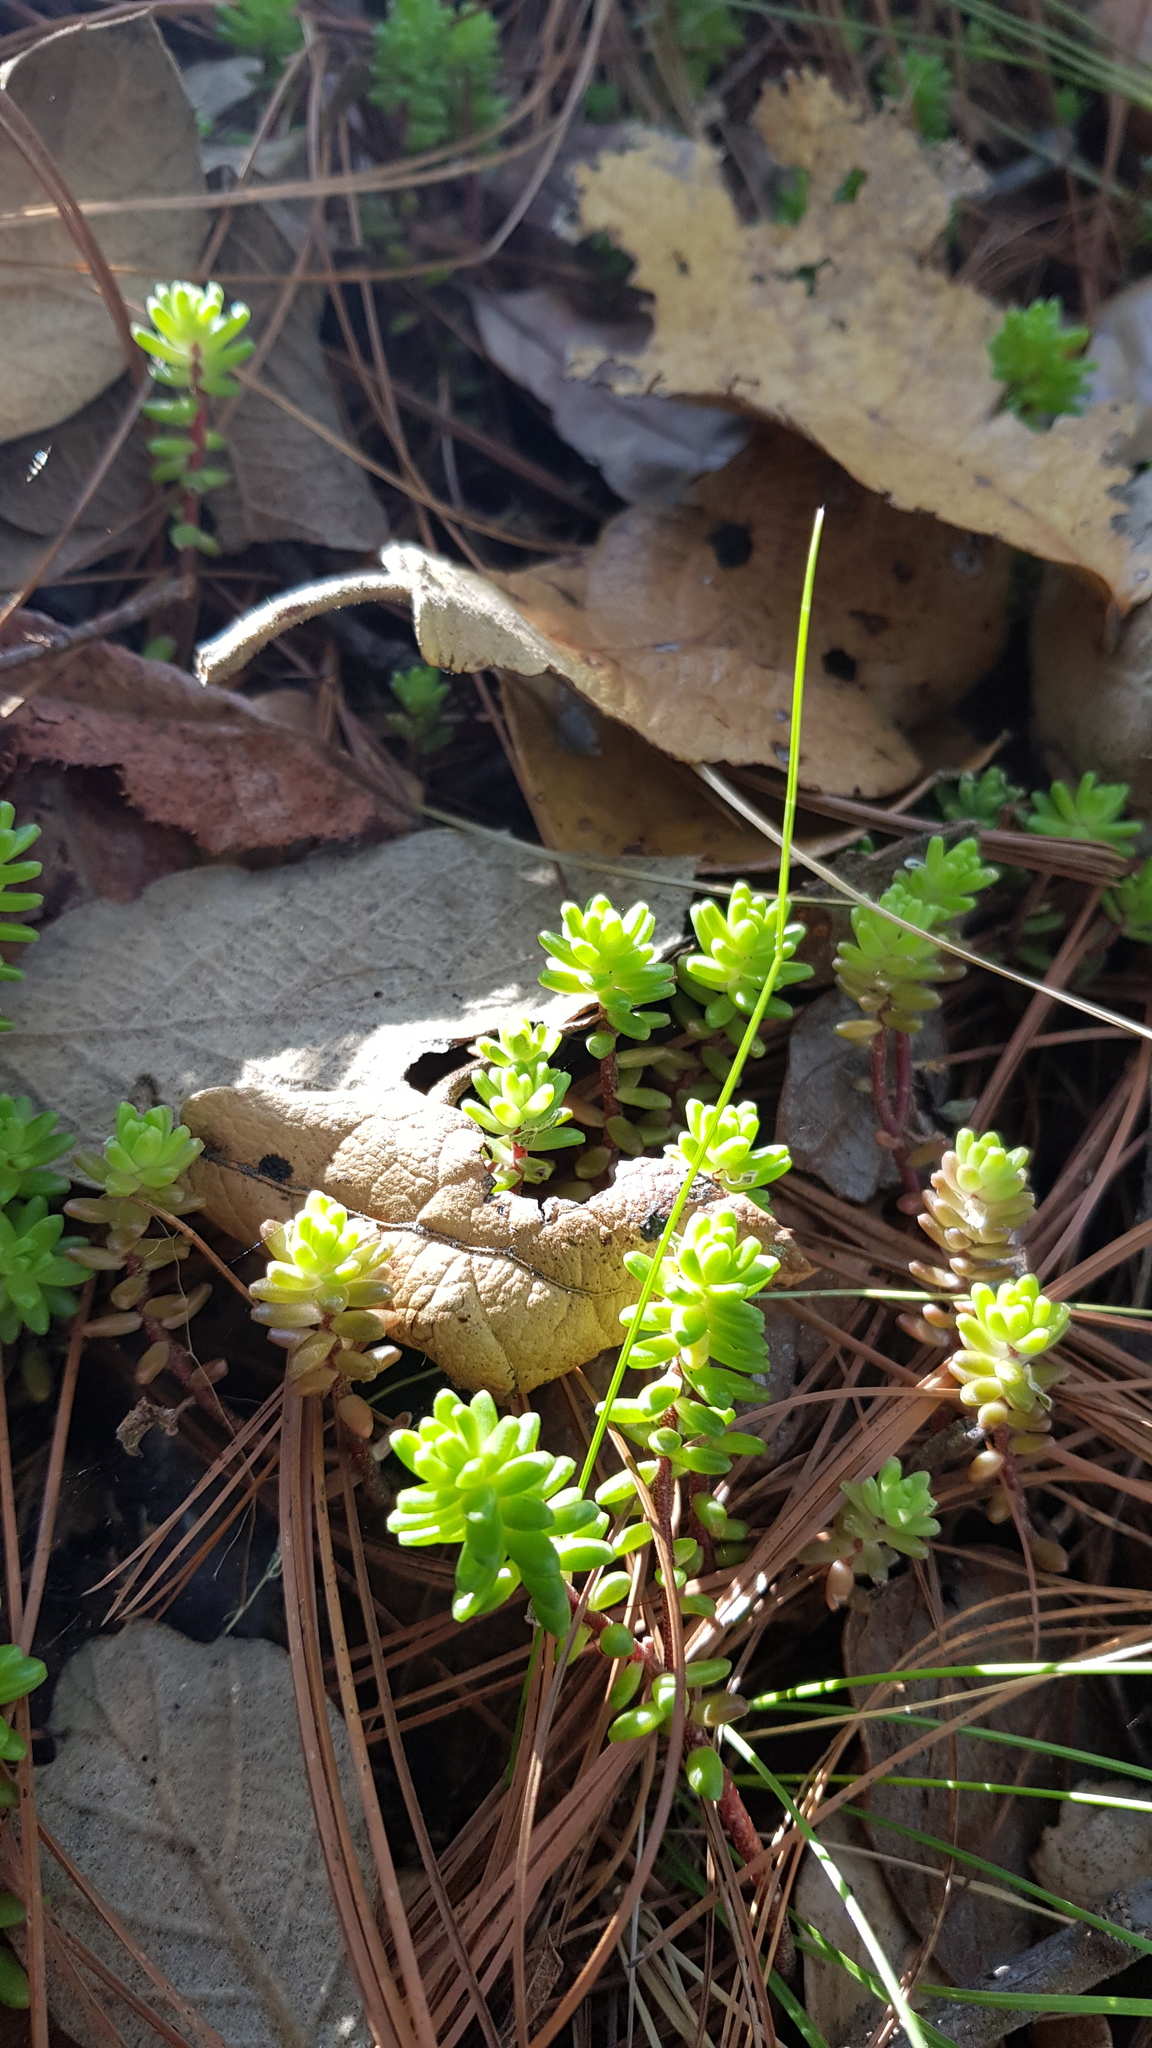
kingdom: Plantae
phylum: Tracheophyta
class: Magnoliopsida
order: Saxifragales
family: Crassulaceae
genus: Sedum
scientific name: Sedum oaxacanum
